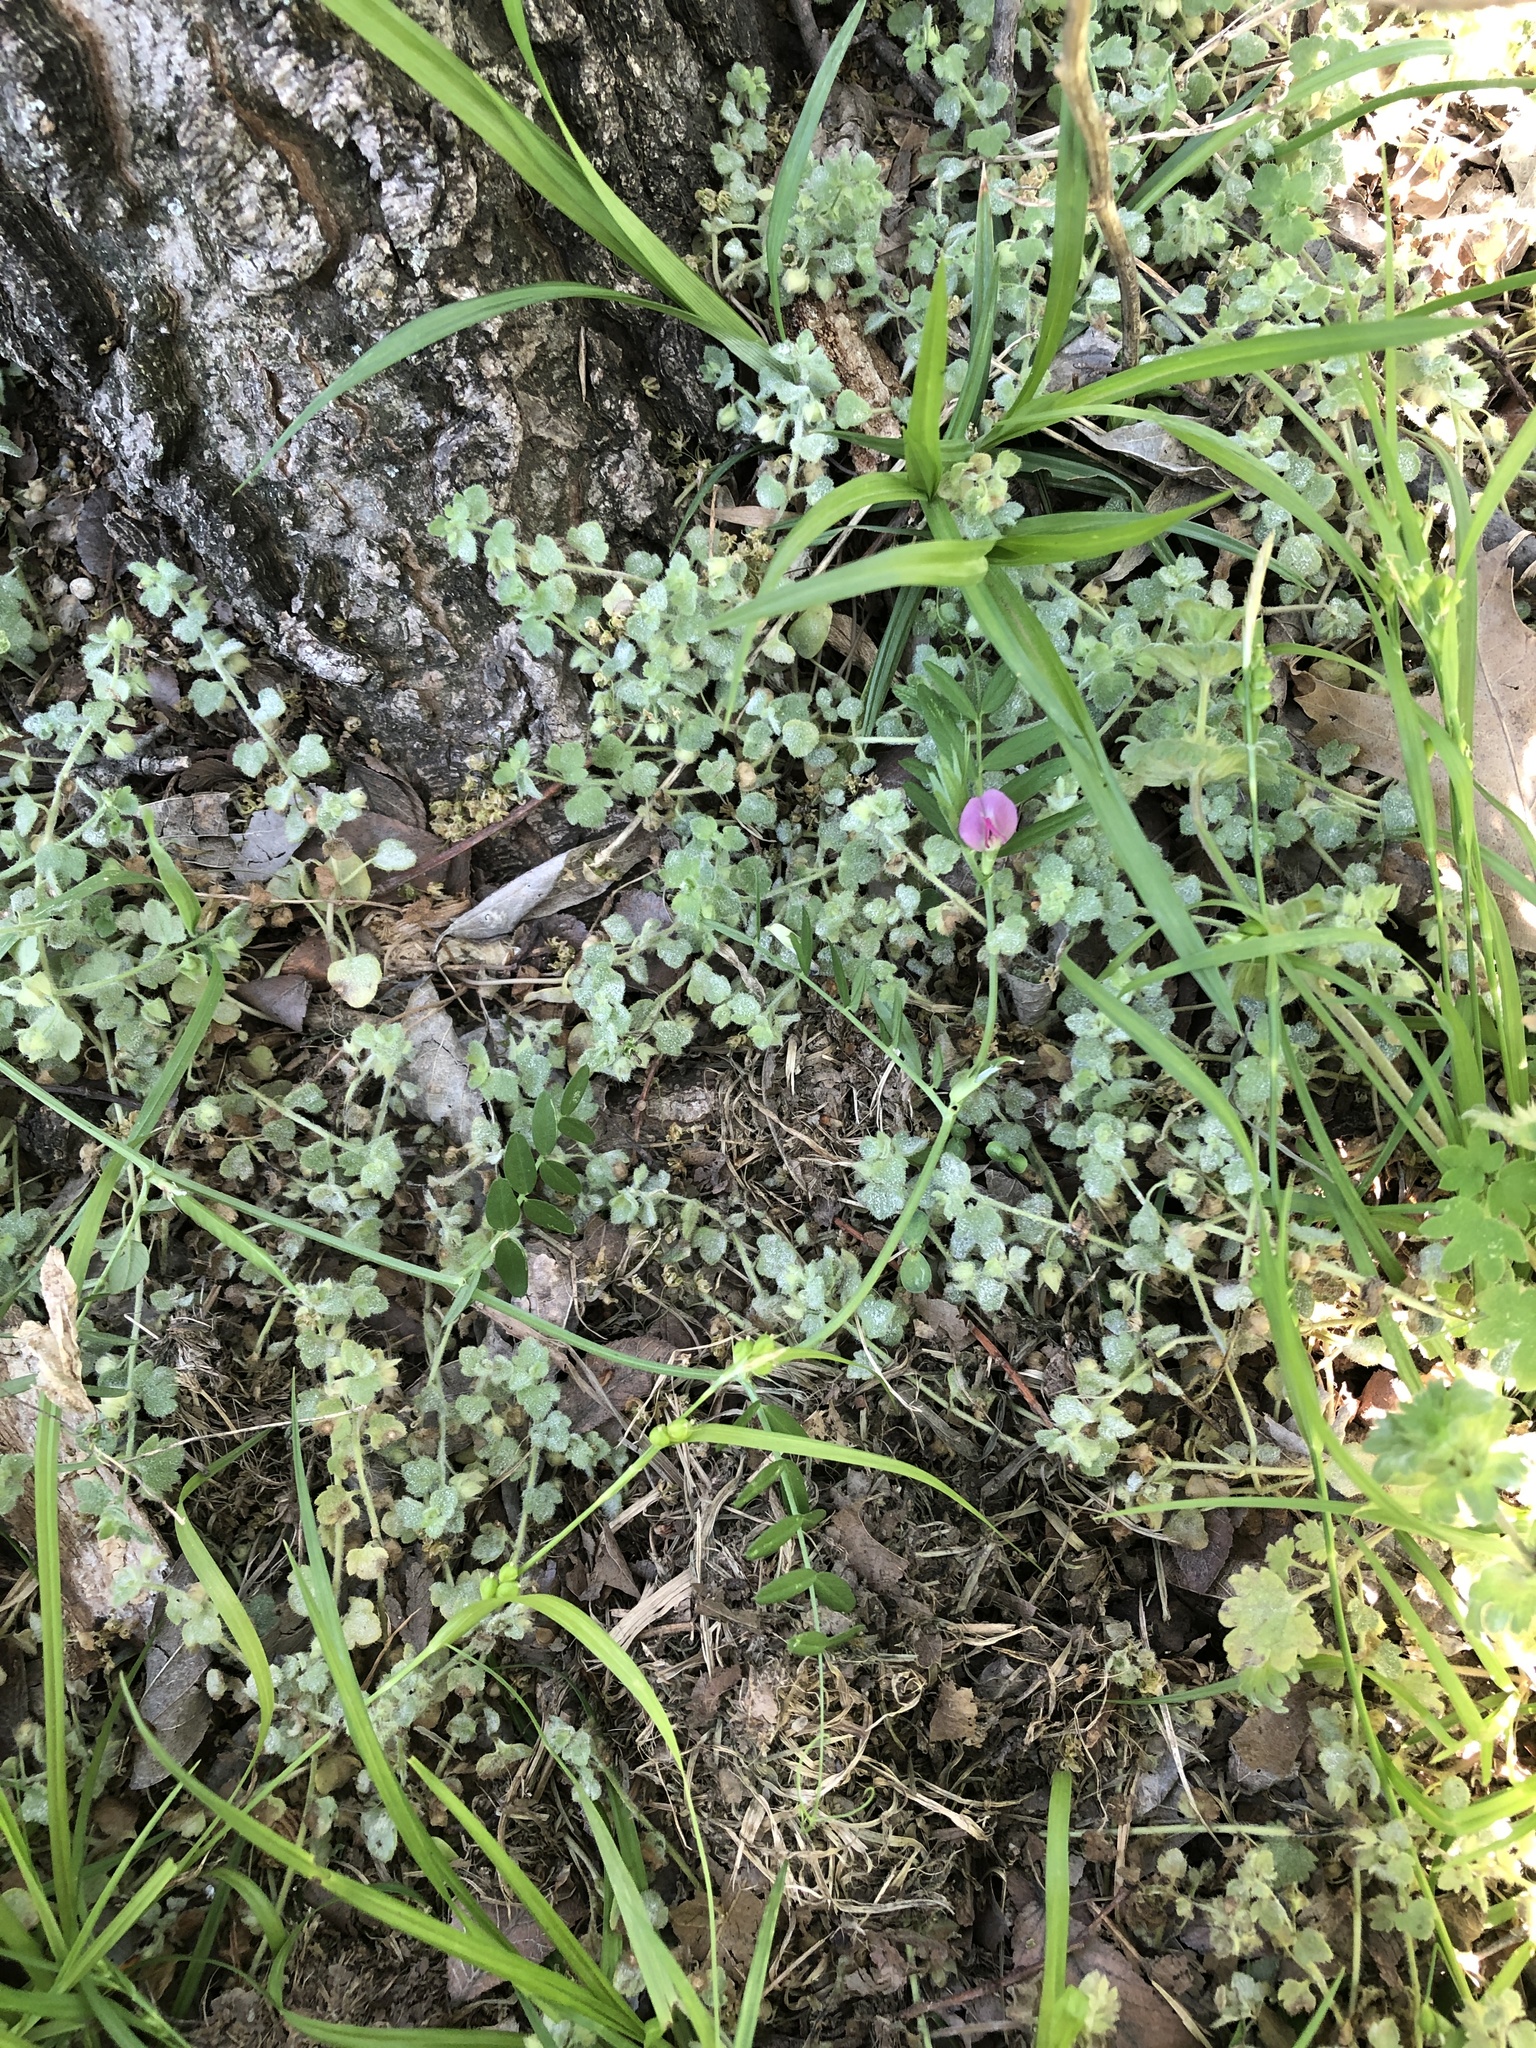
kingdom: Plantae
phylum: Tracheophyta
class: Magnoliopsida
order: Fabales
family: Fabaceae
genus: Vicia
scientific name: Vicia sativa
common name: Garden vetch
